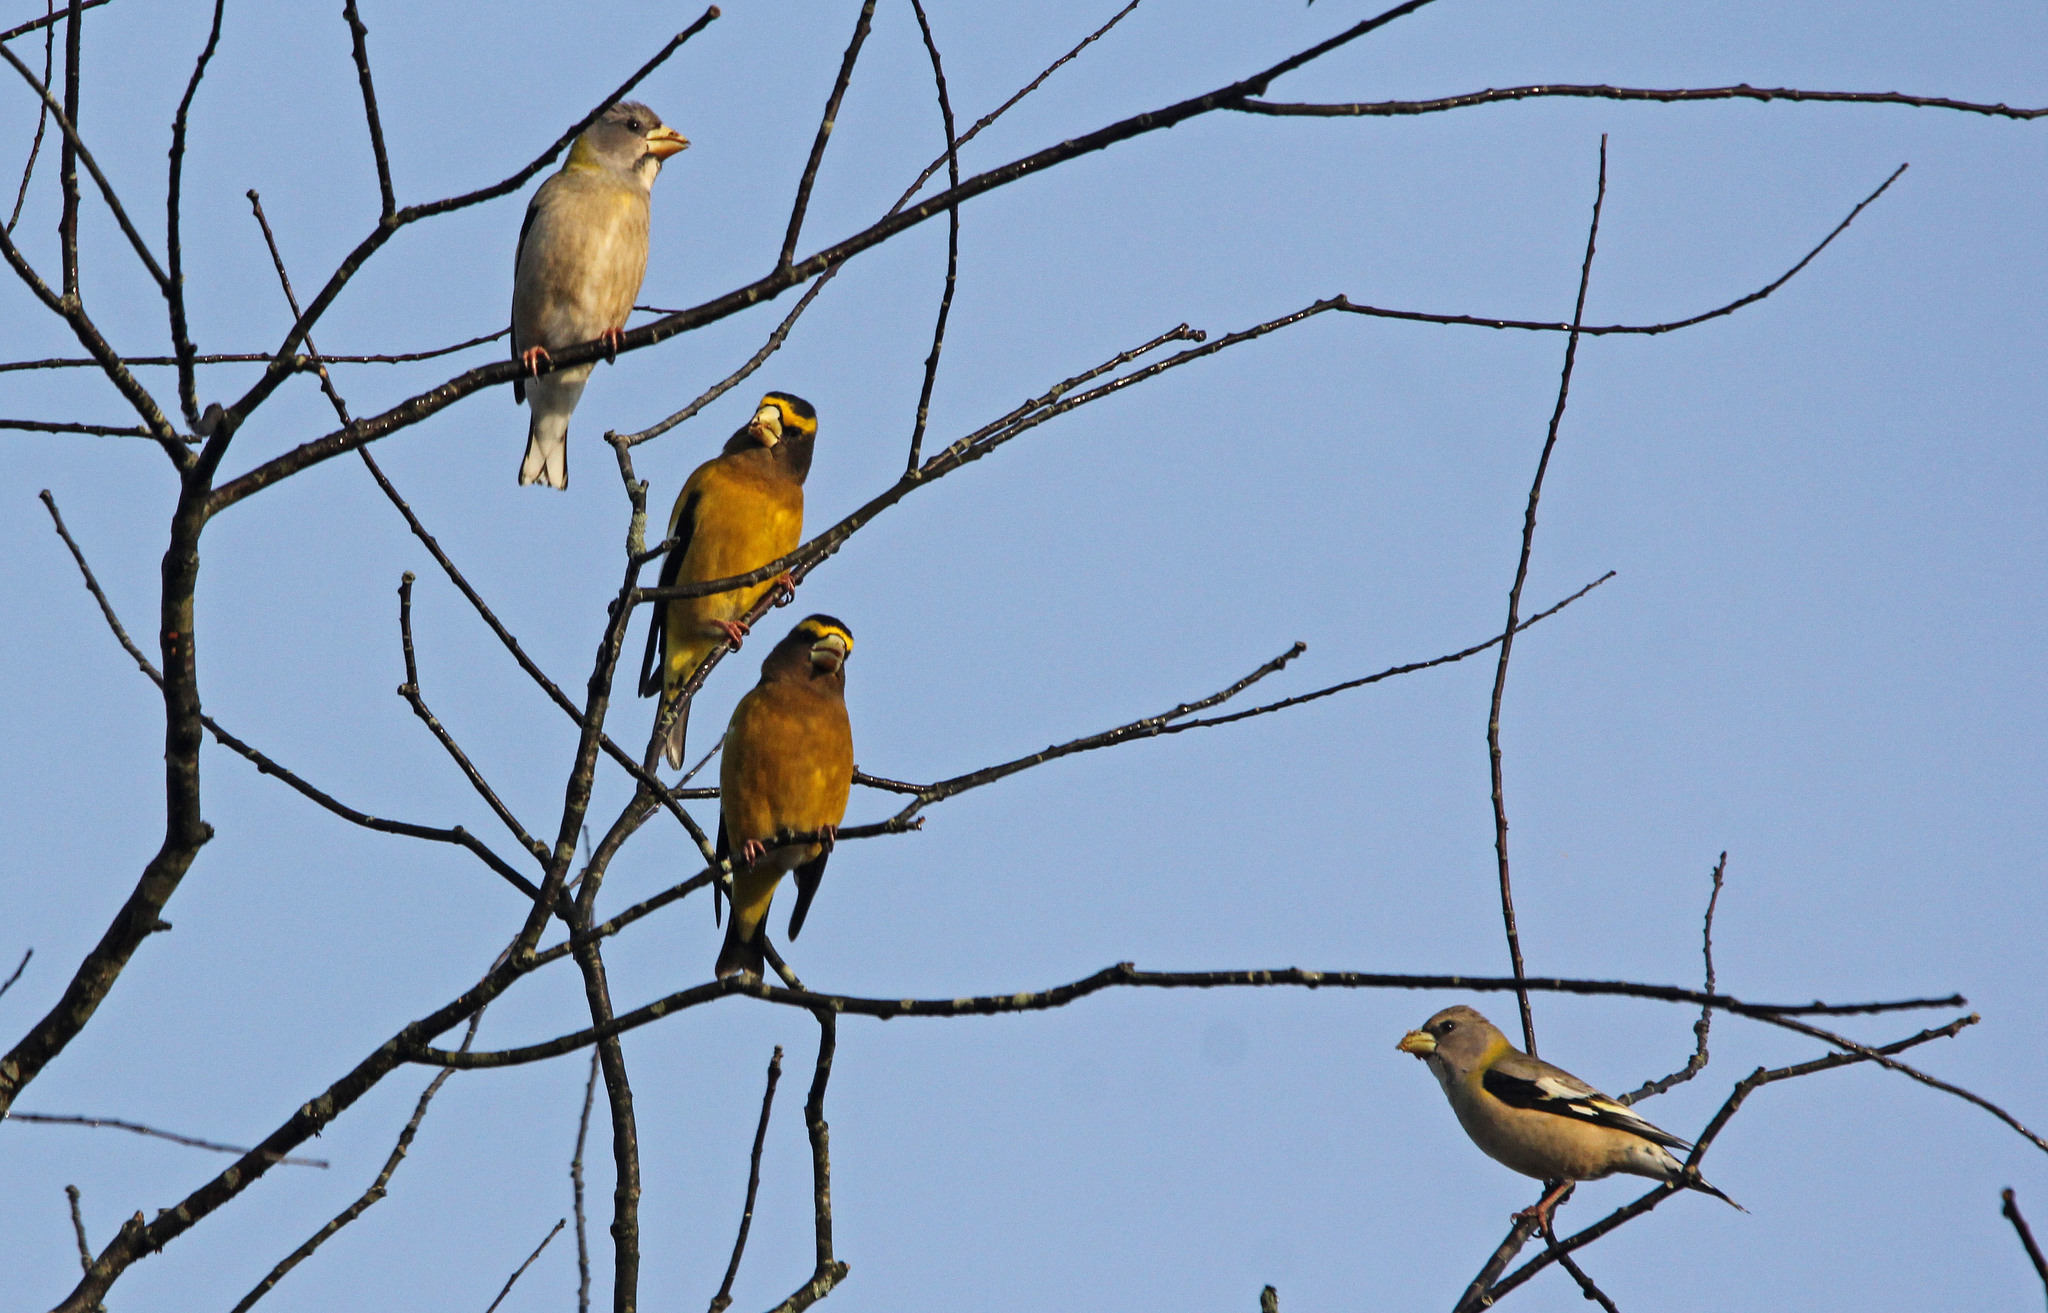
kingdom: Animalia
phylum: Chordata
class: Aves
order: Passeriformes
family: Fringillidae
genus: Hesperiphona
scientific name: Hesperiphona vespertina
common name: Evening grosbeak
